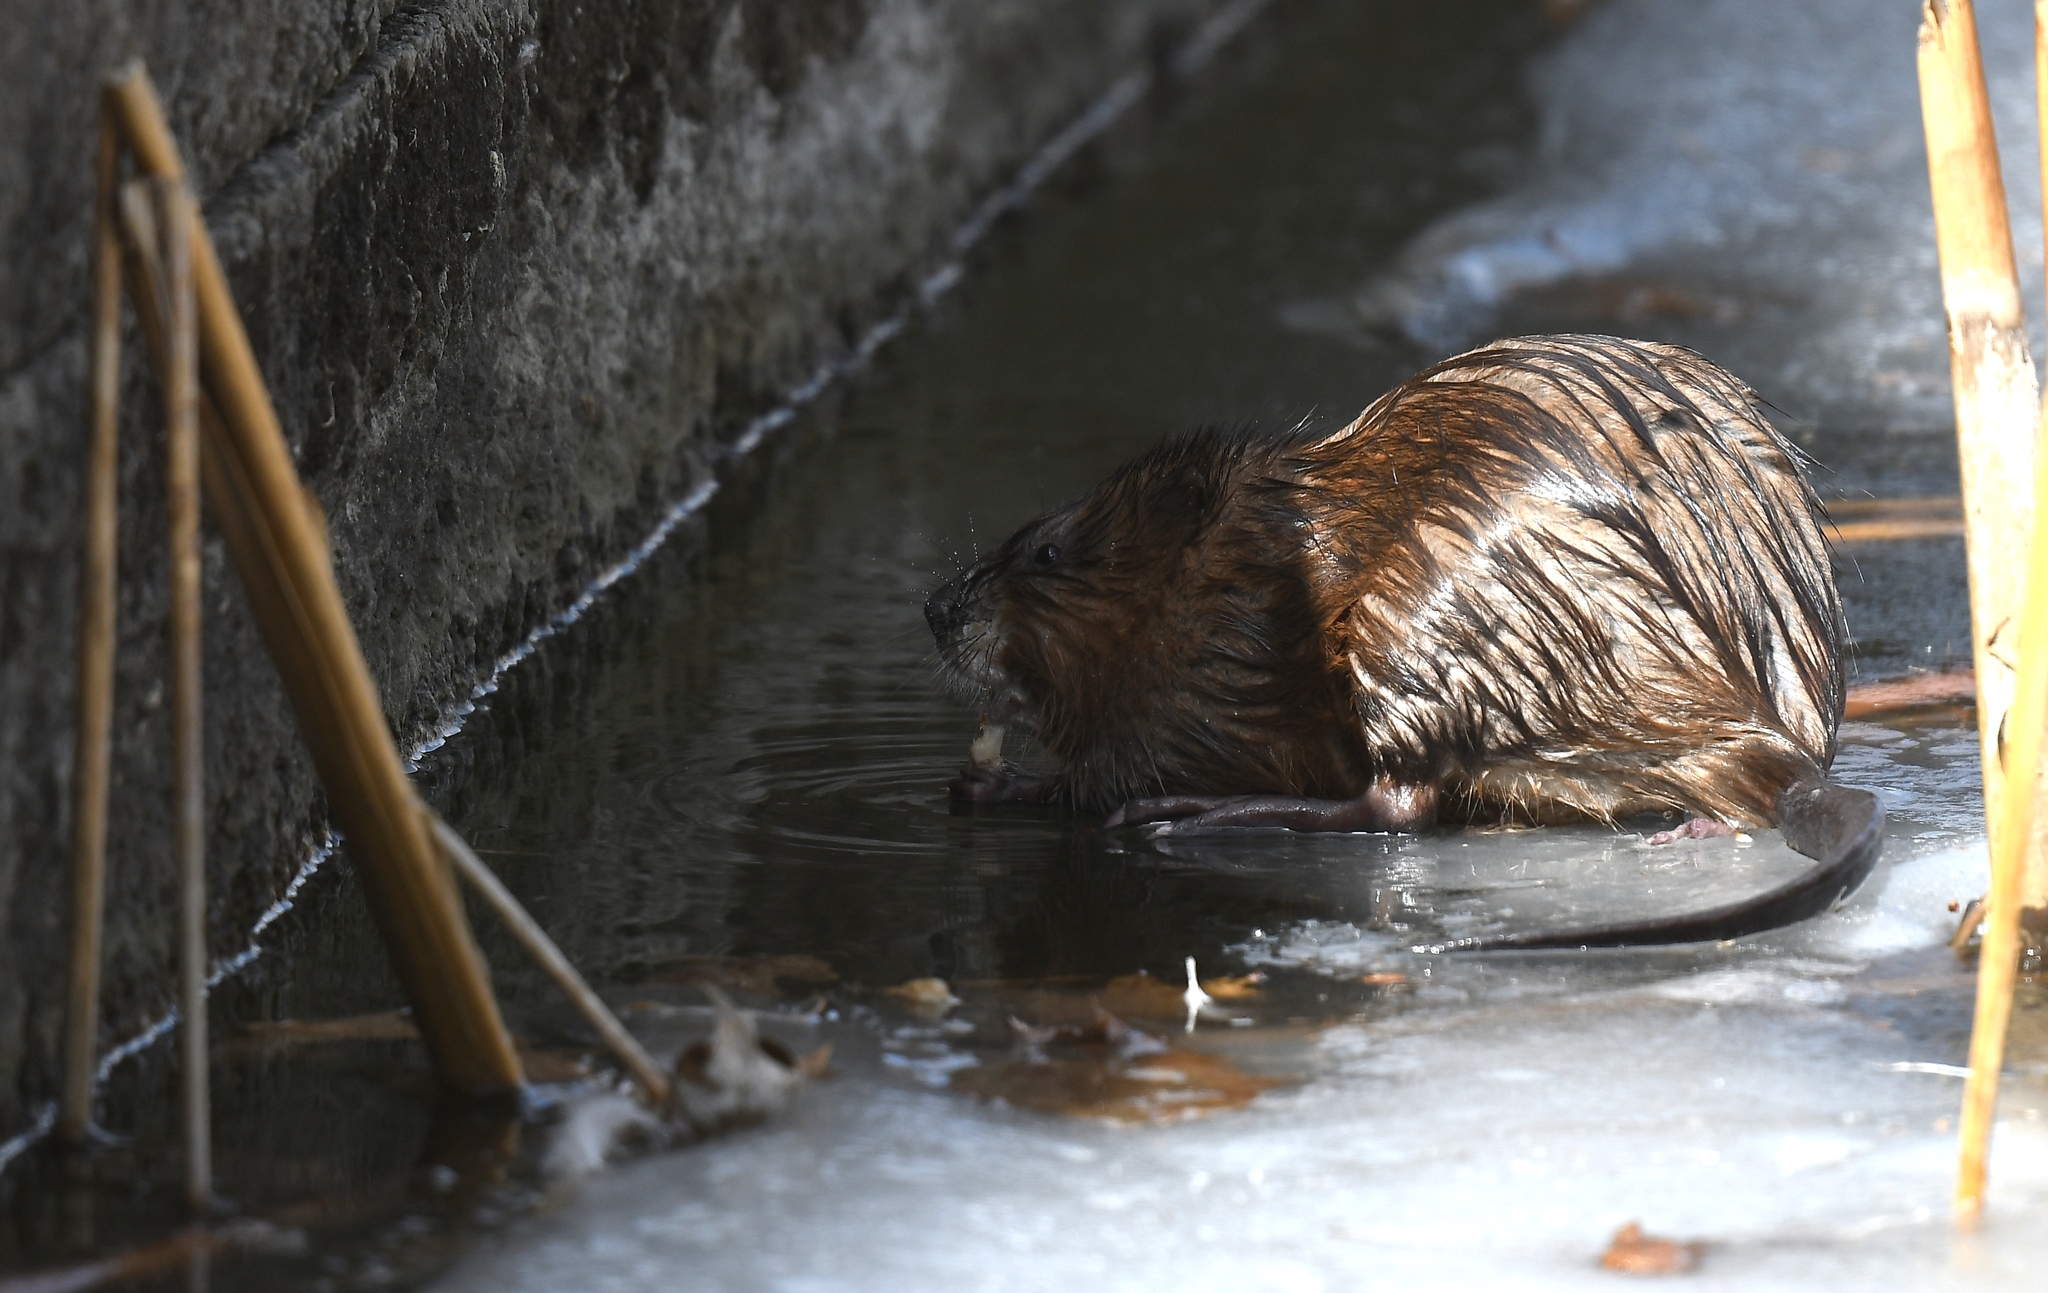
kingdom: Animalia
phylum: Chordata
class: Mammalia
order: Rodentia
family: Cricetidae
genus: Ondatra
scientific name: Ondatra zibethicus
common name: Muskrat
